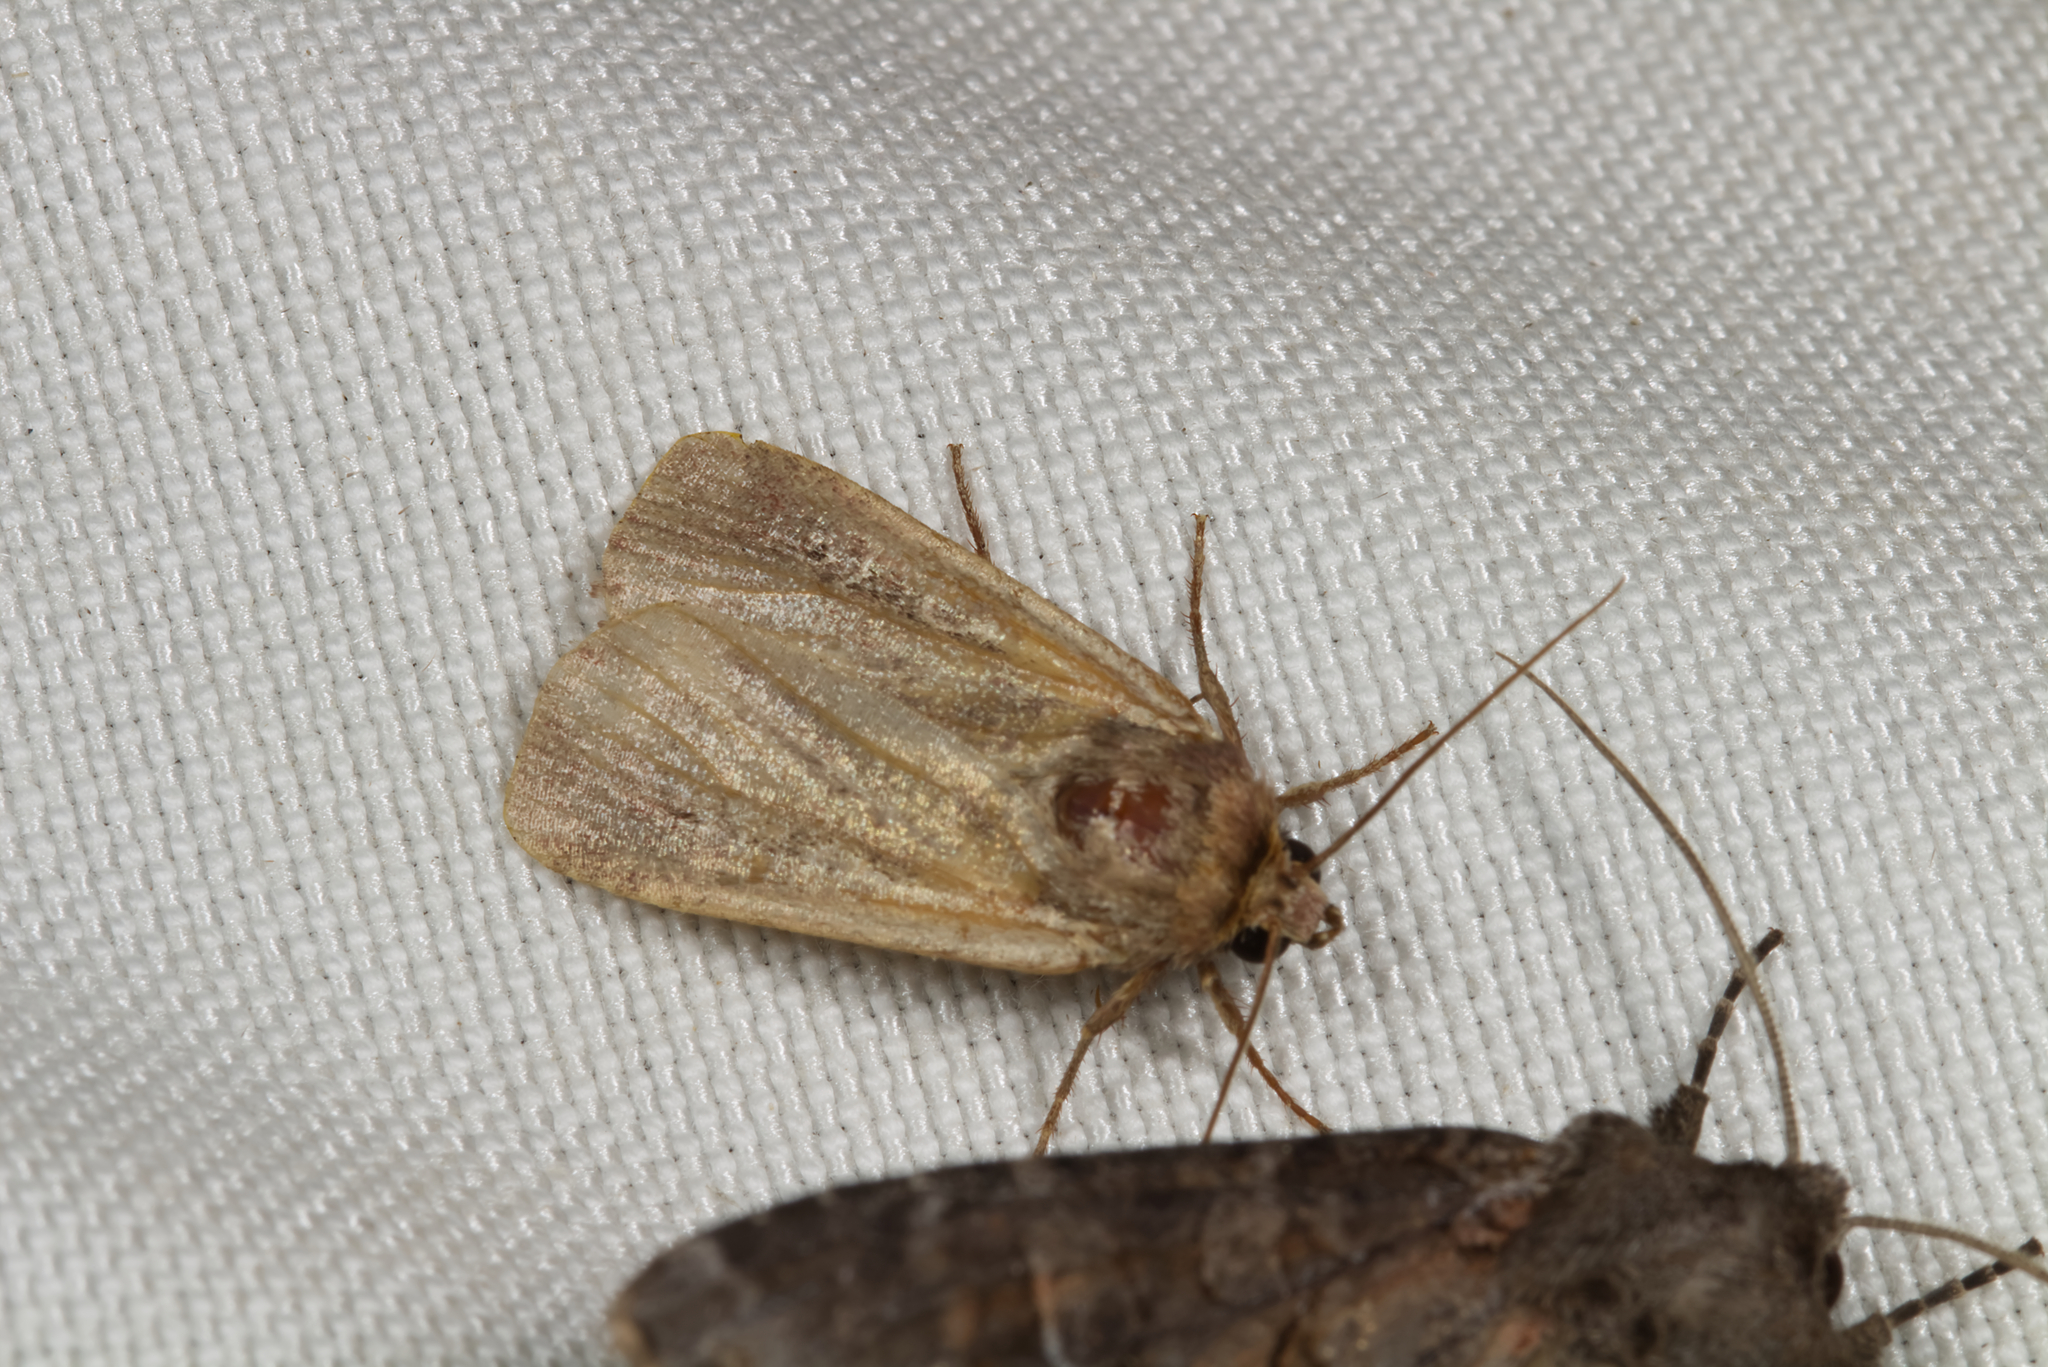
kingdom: Animalia
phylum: Arthropoda
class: Insecta
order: Lepidoptera
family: Noctuidae
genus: Ochropleura
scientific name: Ochropleura plecta
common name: Flame shoulder
